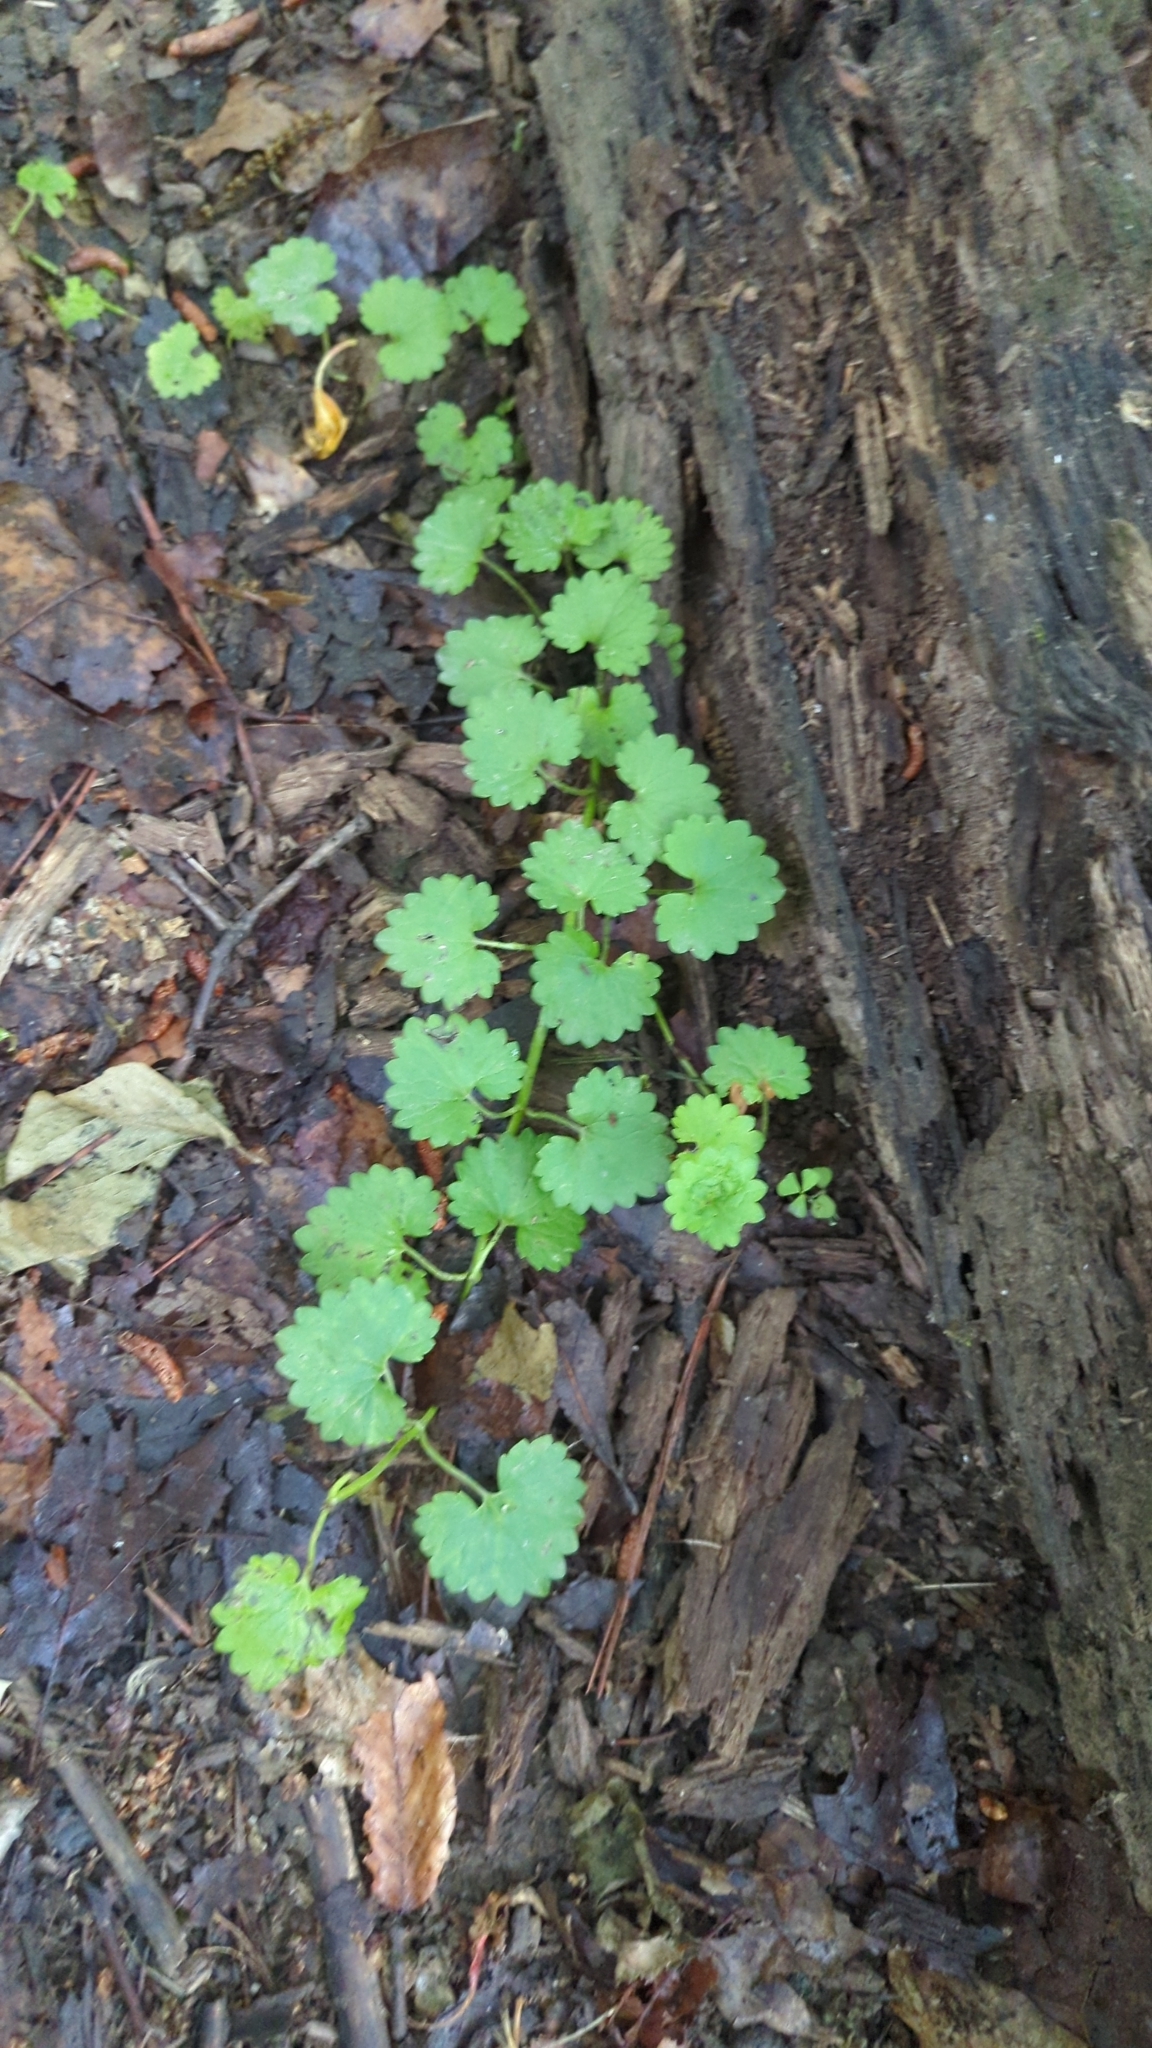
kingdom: Plantae
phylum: Tracheophyta
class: Magnoliopsida
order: Lamiales
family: Lamiaceae
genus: Glechoma
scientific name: Glechoma hederacea
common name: Ground ivy
